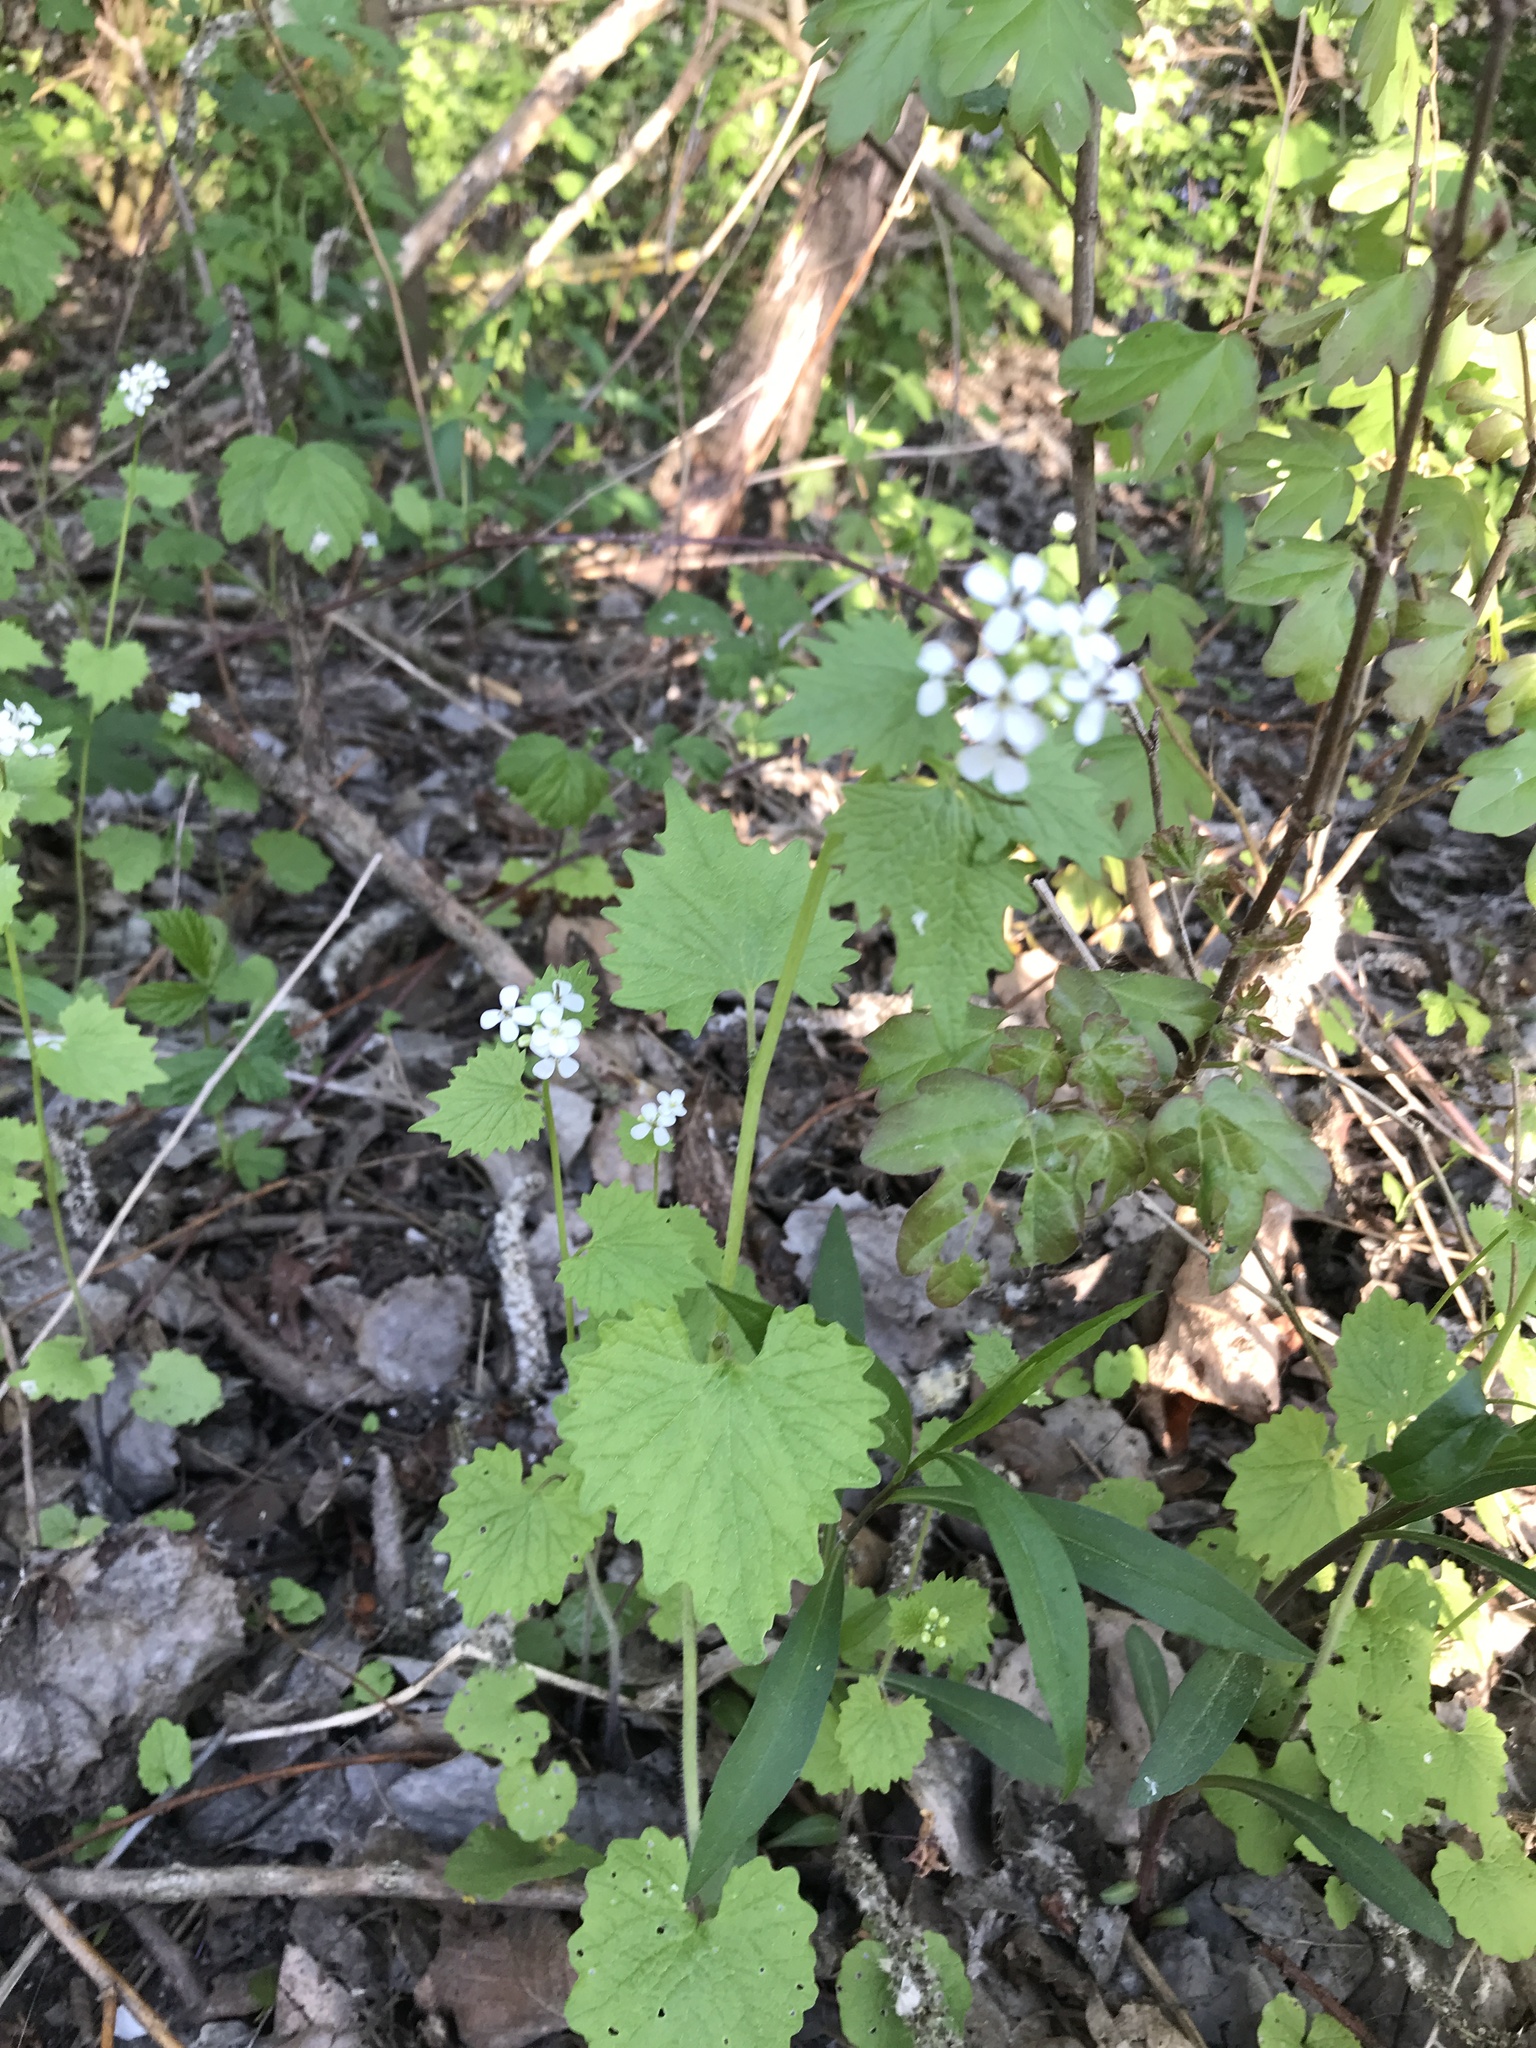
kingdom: Plantae
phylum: Tracheophyta
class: Magnoliopsida
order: Brassicales
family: Brassicaceae
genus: Alliaria
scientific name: Alliaria petiolata
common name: Garlic mustard
